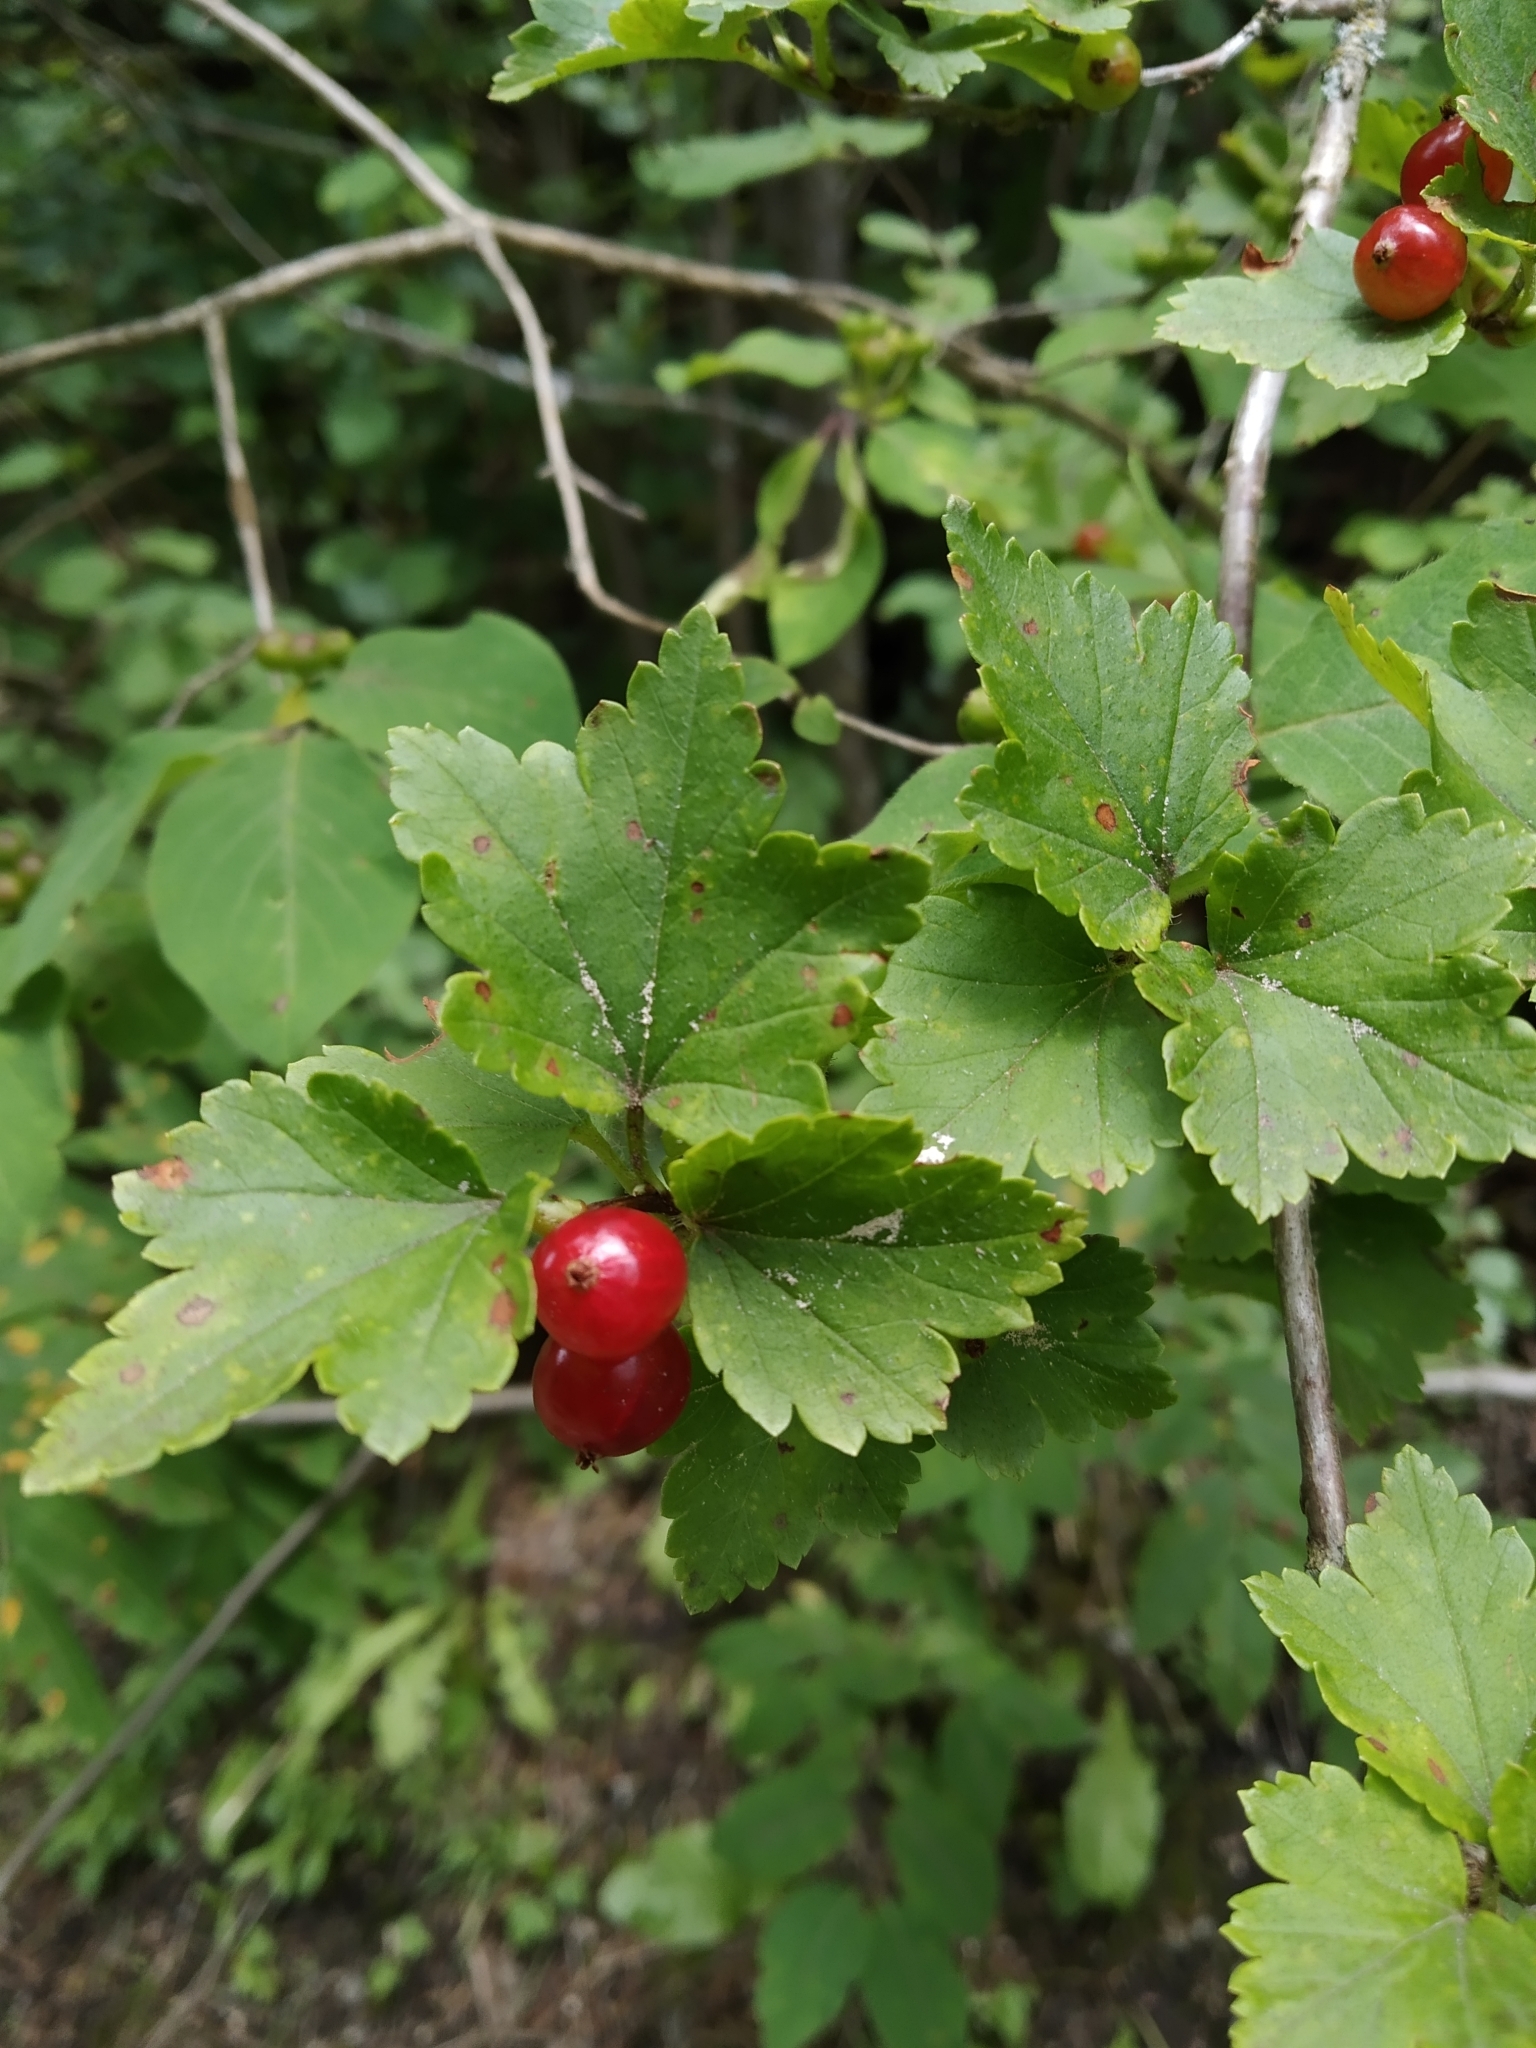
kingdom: Plantae
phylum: Tracheophyta
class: Magnoliopsida
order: Saxifragales
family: Grossulariaceae
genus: Ribes
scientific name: Ribes alpinum
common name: Alpine currant
